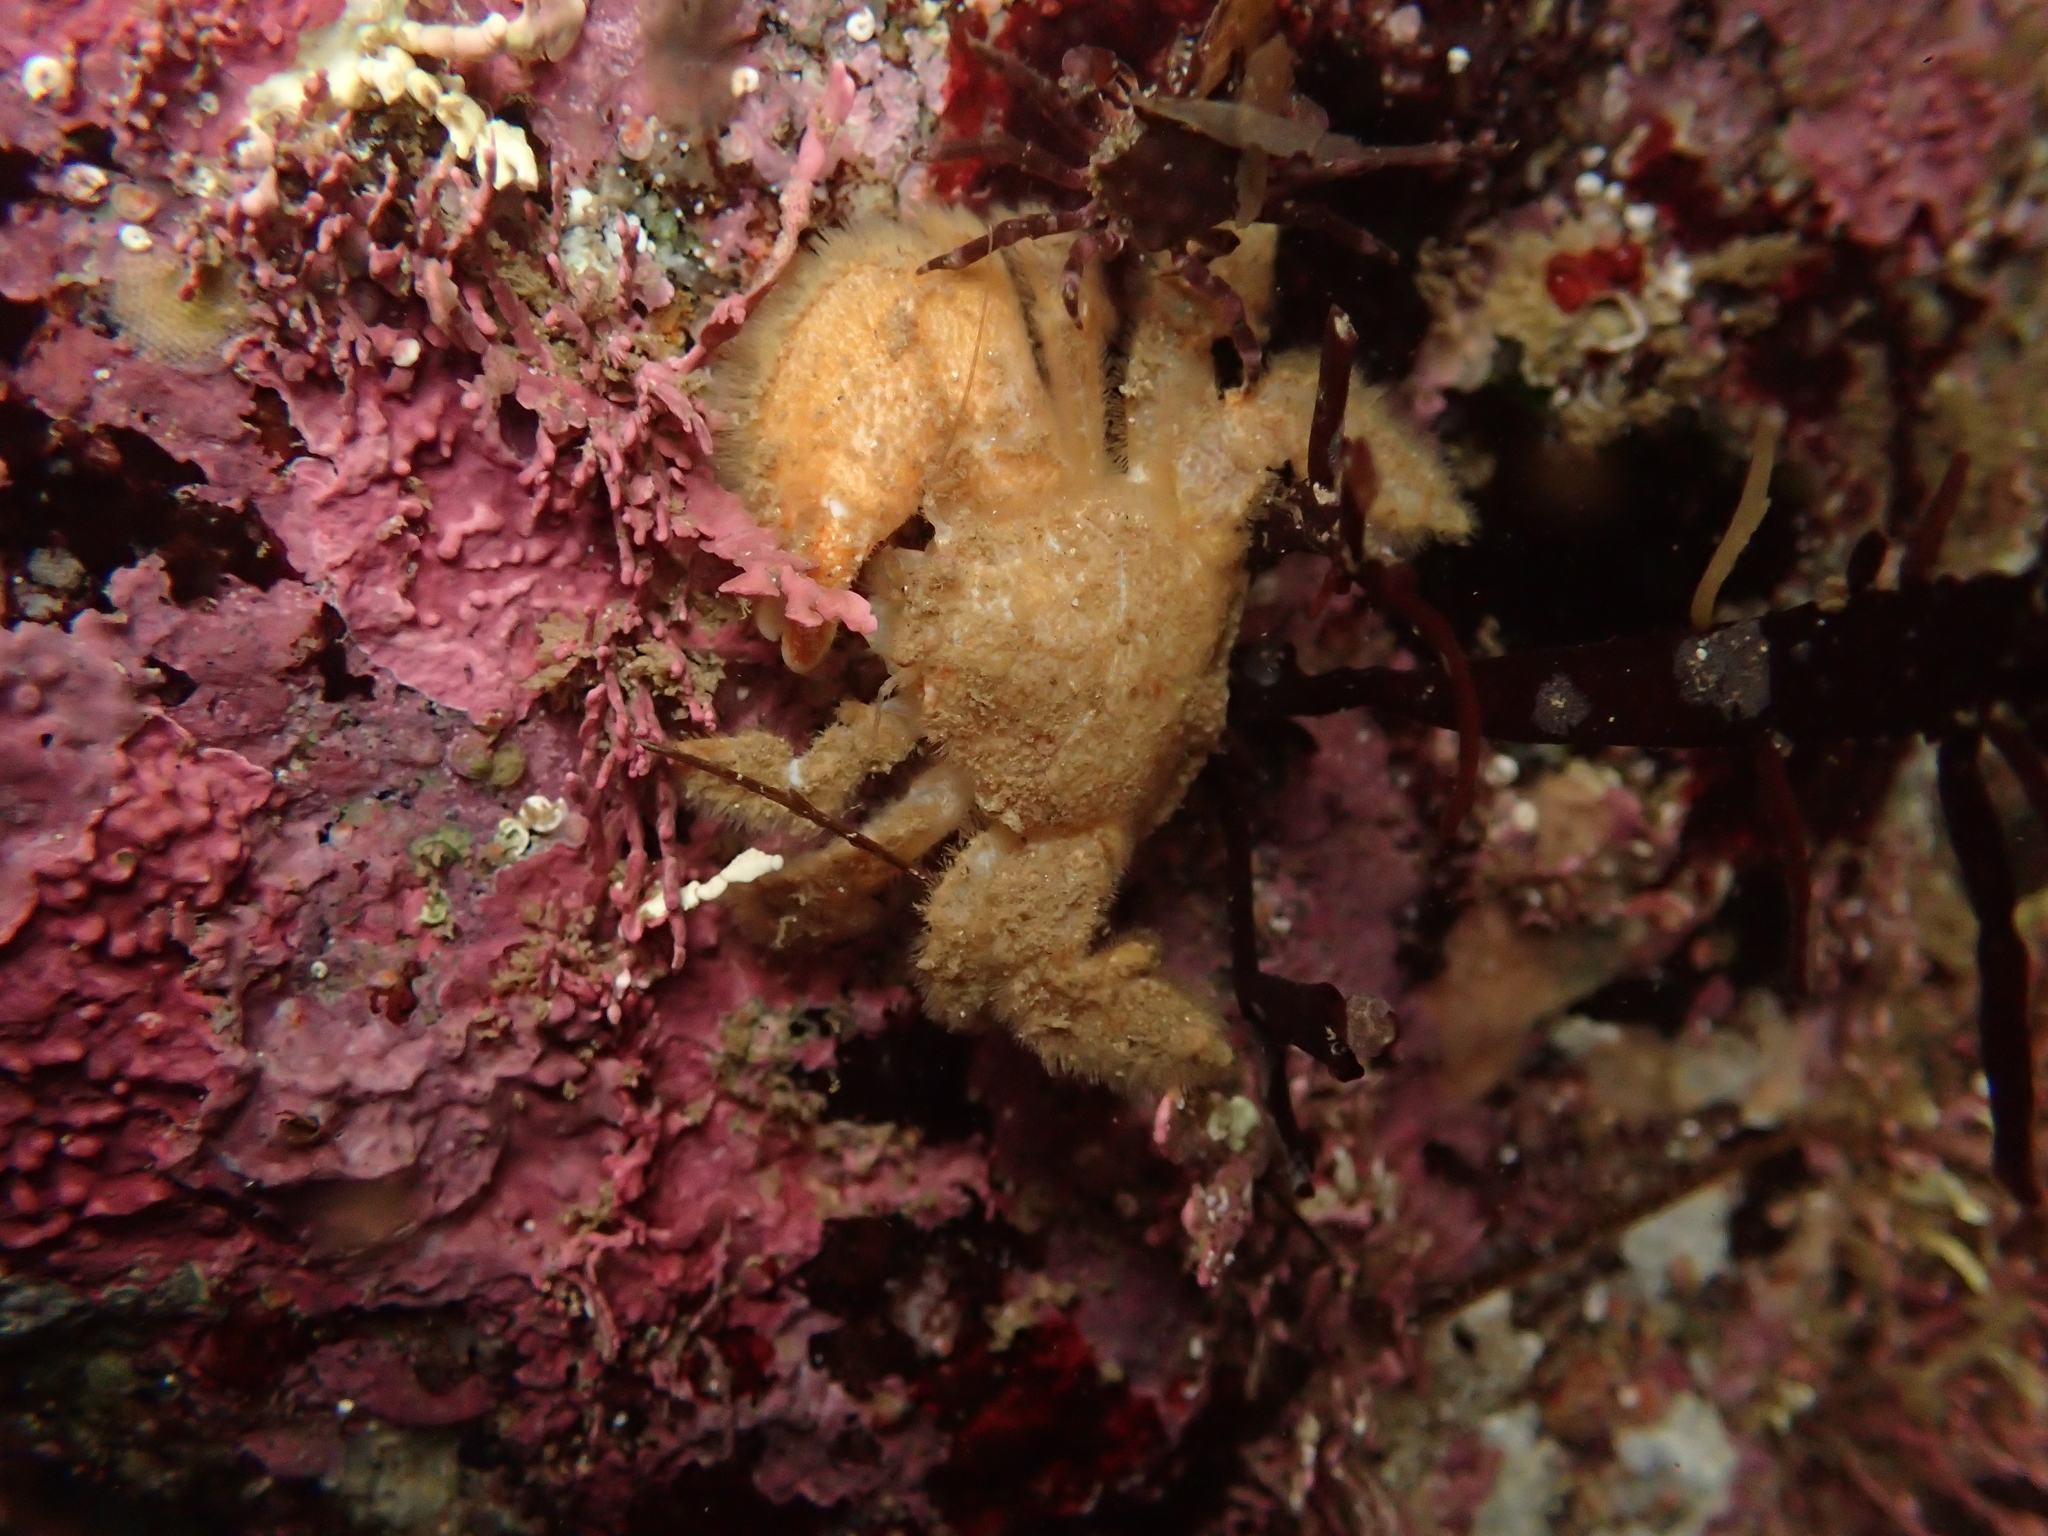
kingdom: Animalia
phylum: Arthropoda
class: Malacostraca
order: Decapoda
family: Hapalogastridae
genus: Hapalogaster
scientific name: Hapalogaster cavicauda
